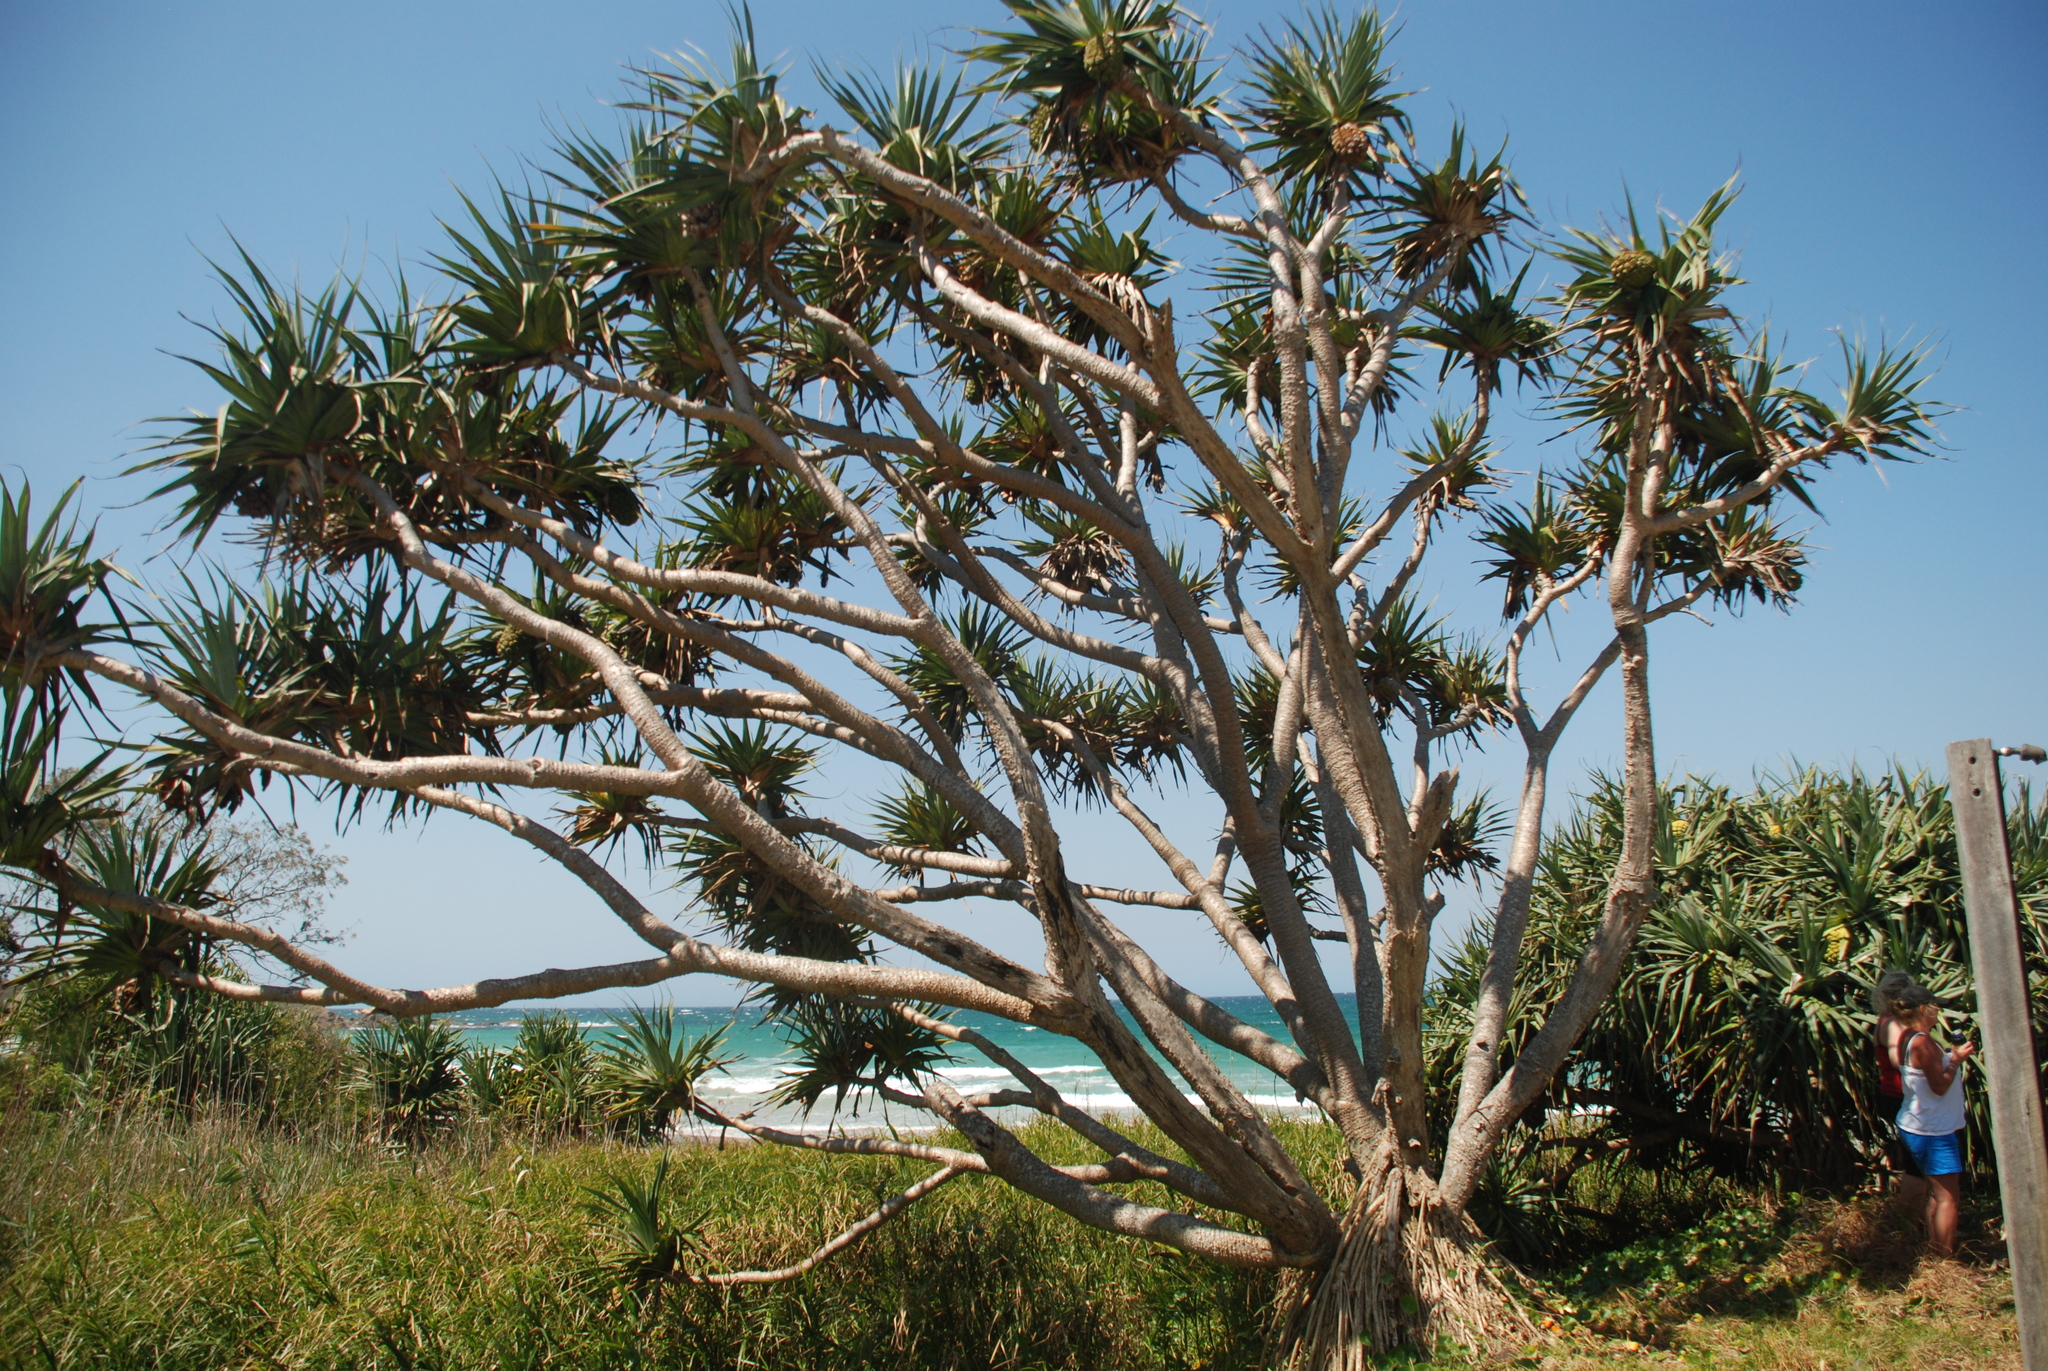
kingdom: Plantae
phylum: Tracheophyta
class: Liliopsida
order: Pandanales
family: Pandanaceae
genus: Pandanus
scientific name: Pandanus tectorius
